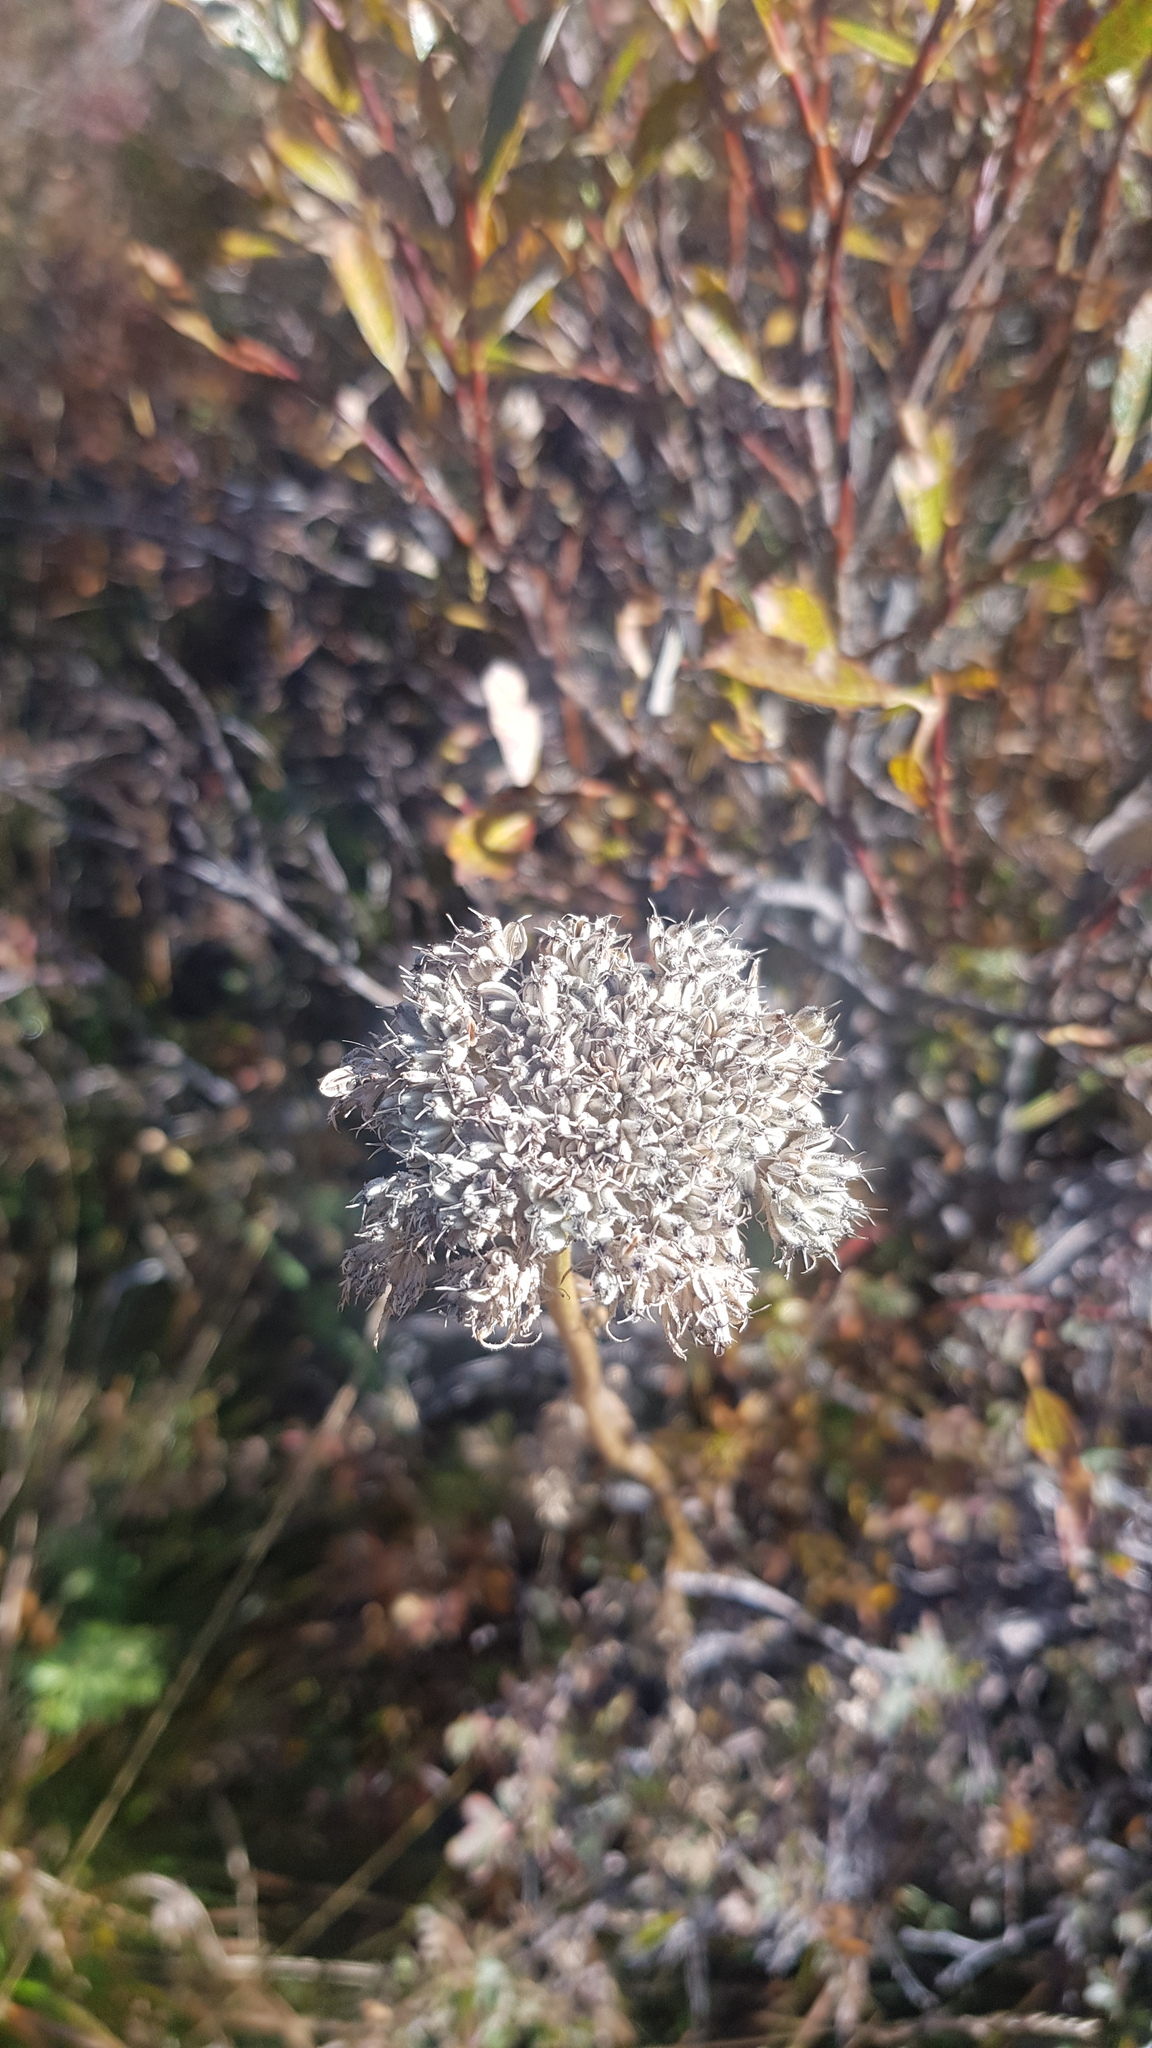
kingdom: Plantae
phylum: Tracheophyta
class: Magnoliopsida
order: Apiales
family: Apiaceae
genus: Seseli
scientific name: Seseli condensatum
